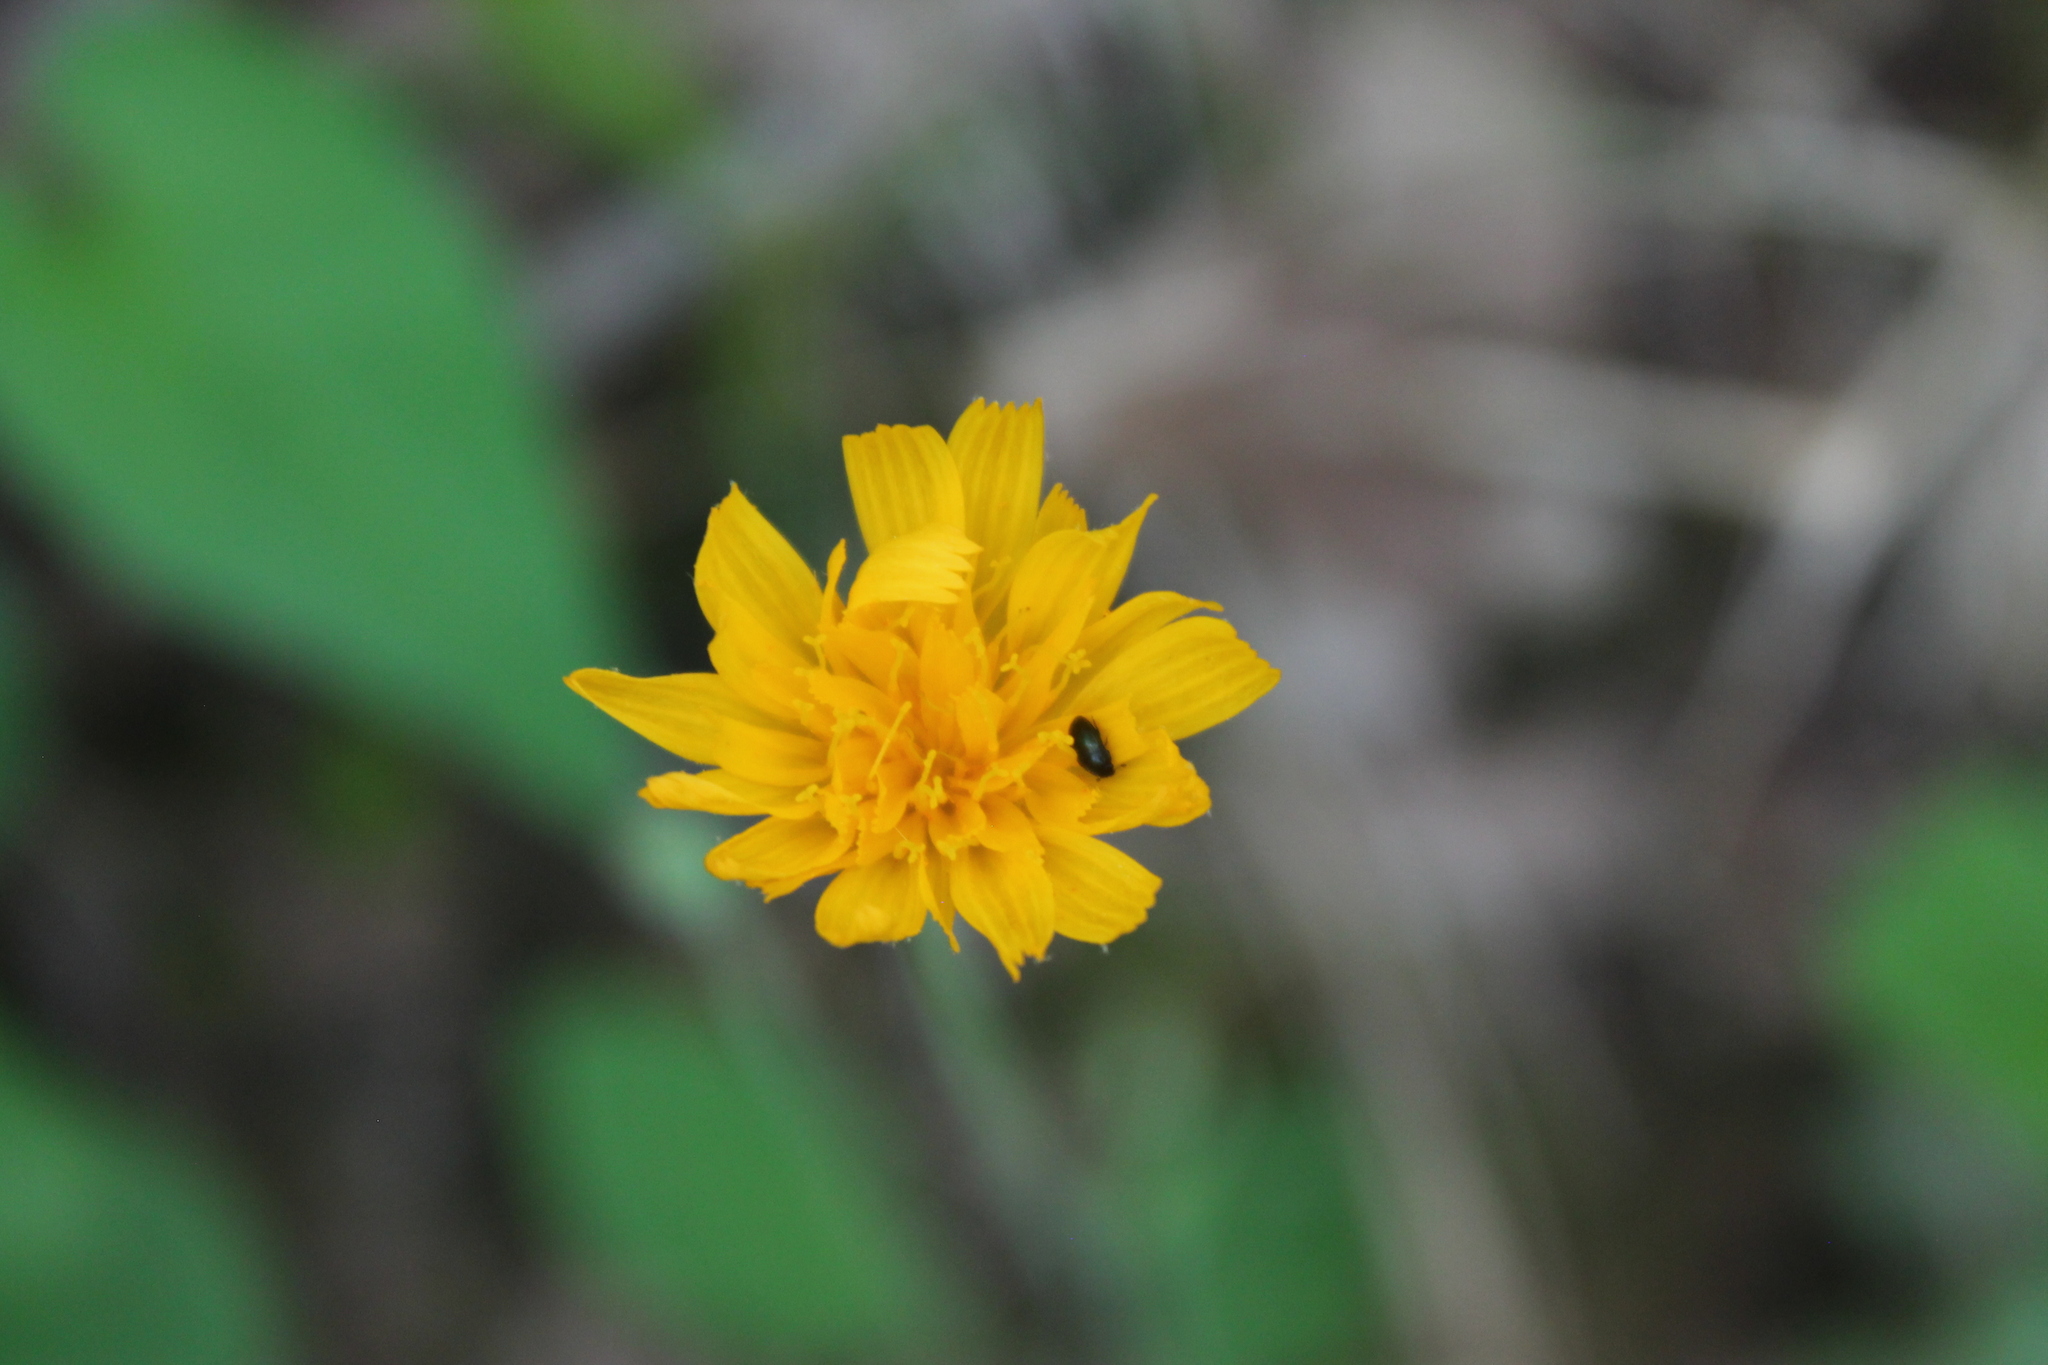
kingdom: Plantae
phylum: Tracheophyta
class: Magnoliopsida
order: Asterales
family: Asteraceae
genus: Krigia
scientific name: Krigia biflora
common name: Orange dwarf-dandelion
